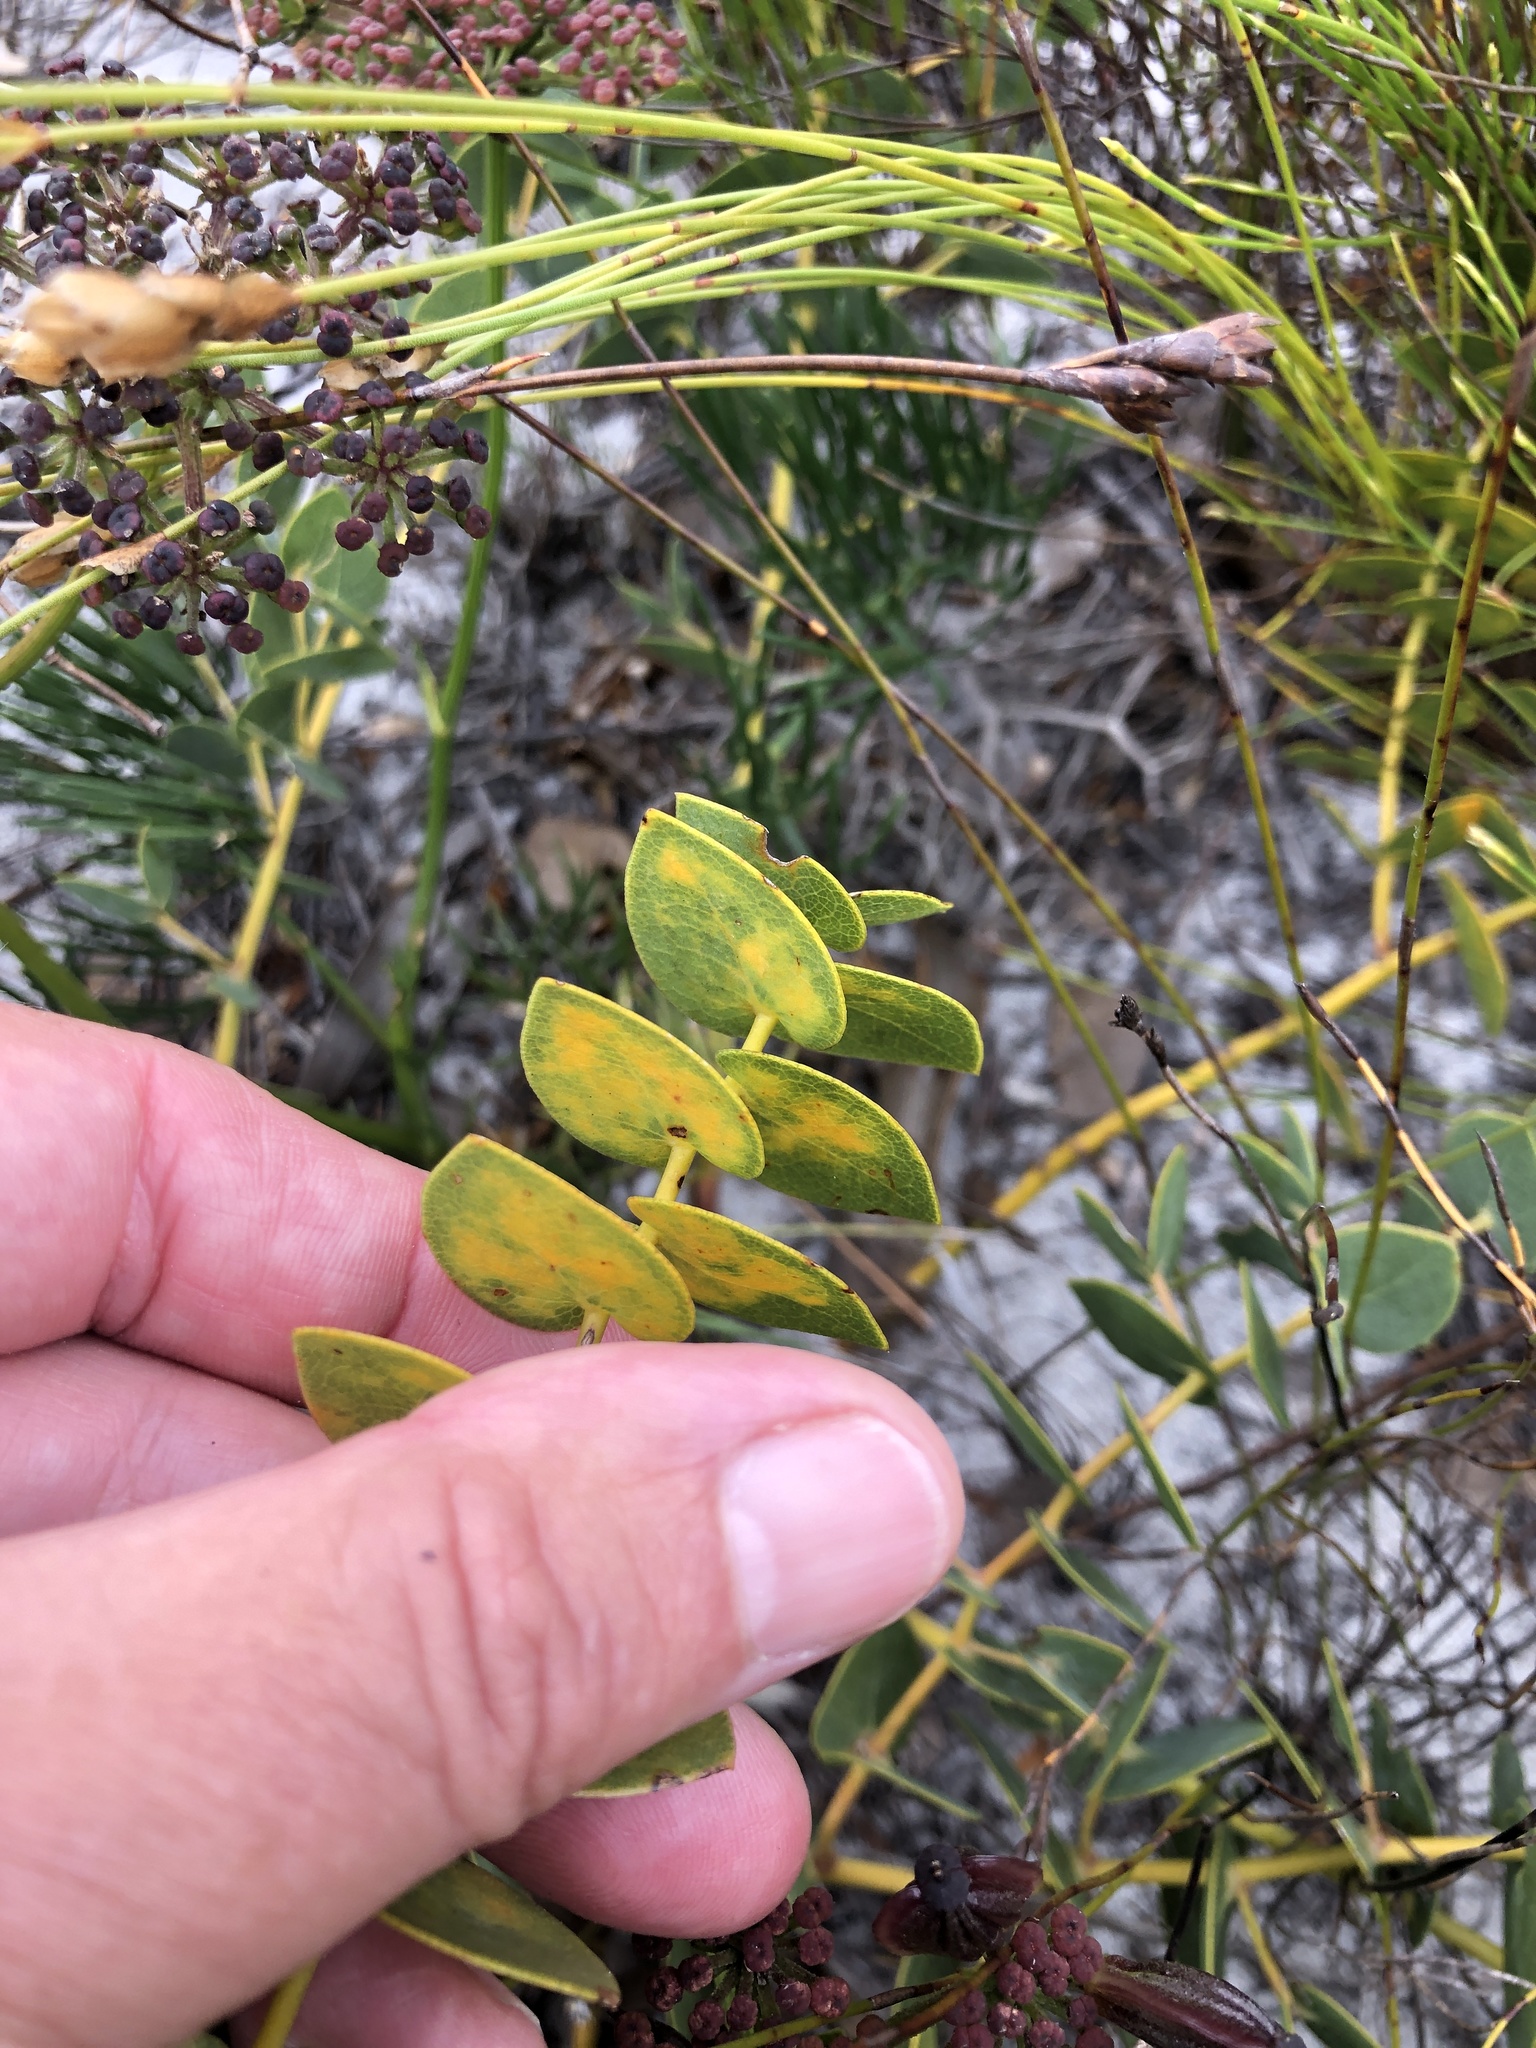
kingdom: Plantae
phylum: Tracheophyta
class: Magnoliopsida
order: Fabales
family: Fabaceae
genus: Rafnia
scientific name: Rafnia acuminata
